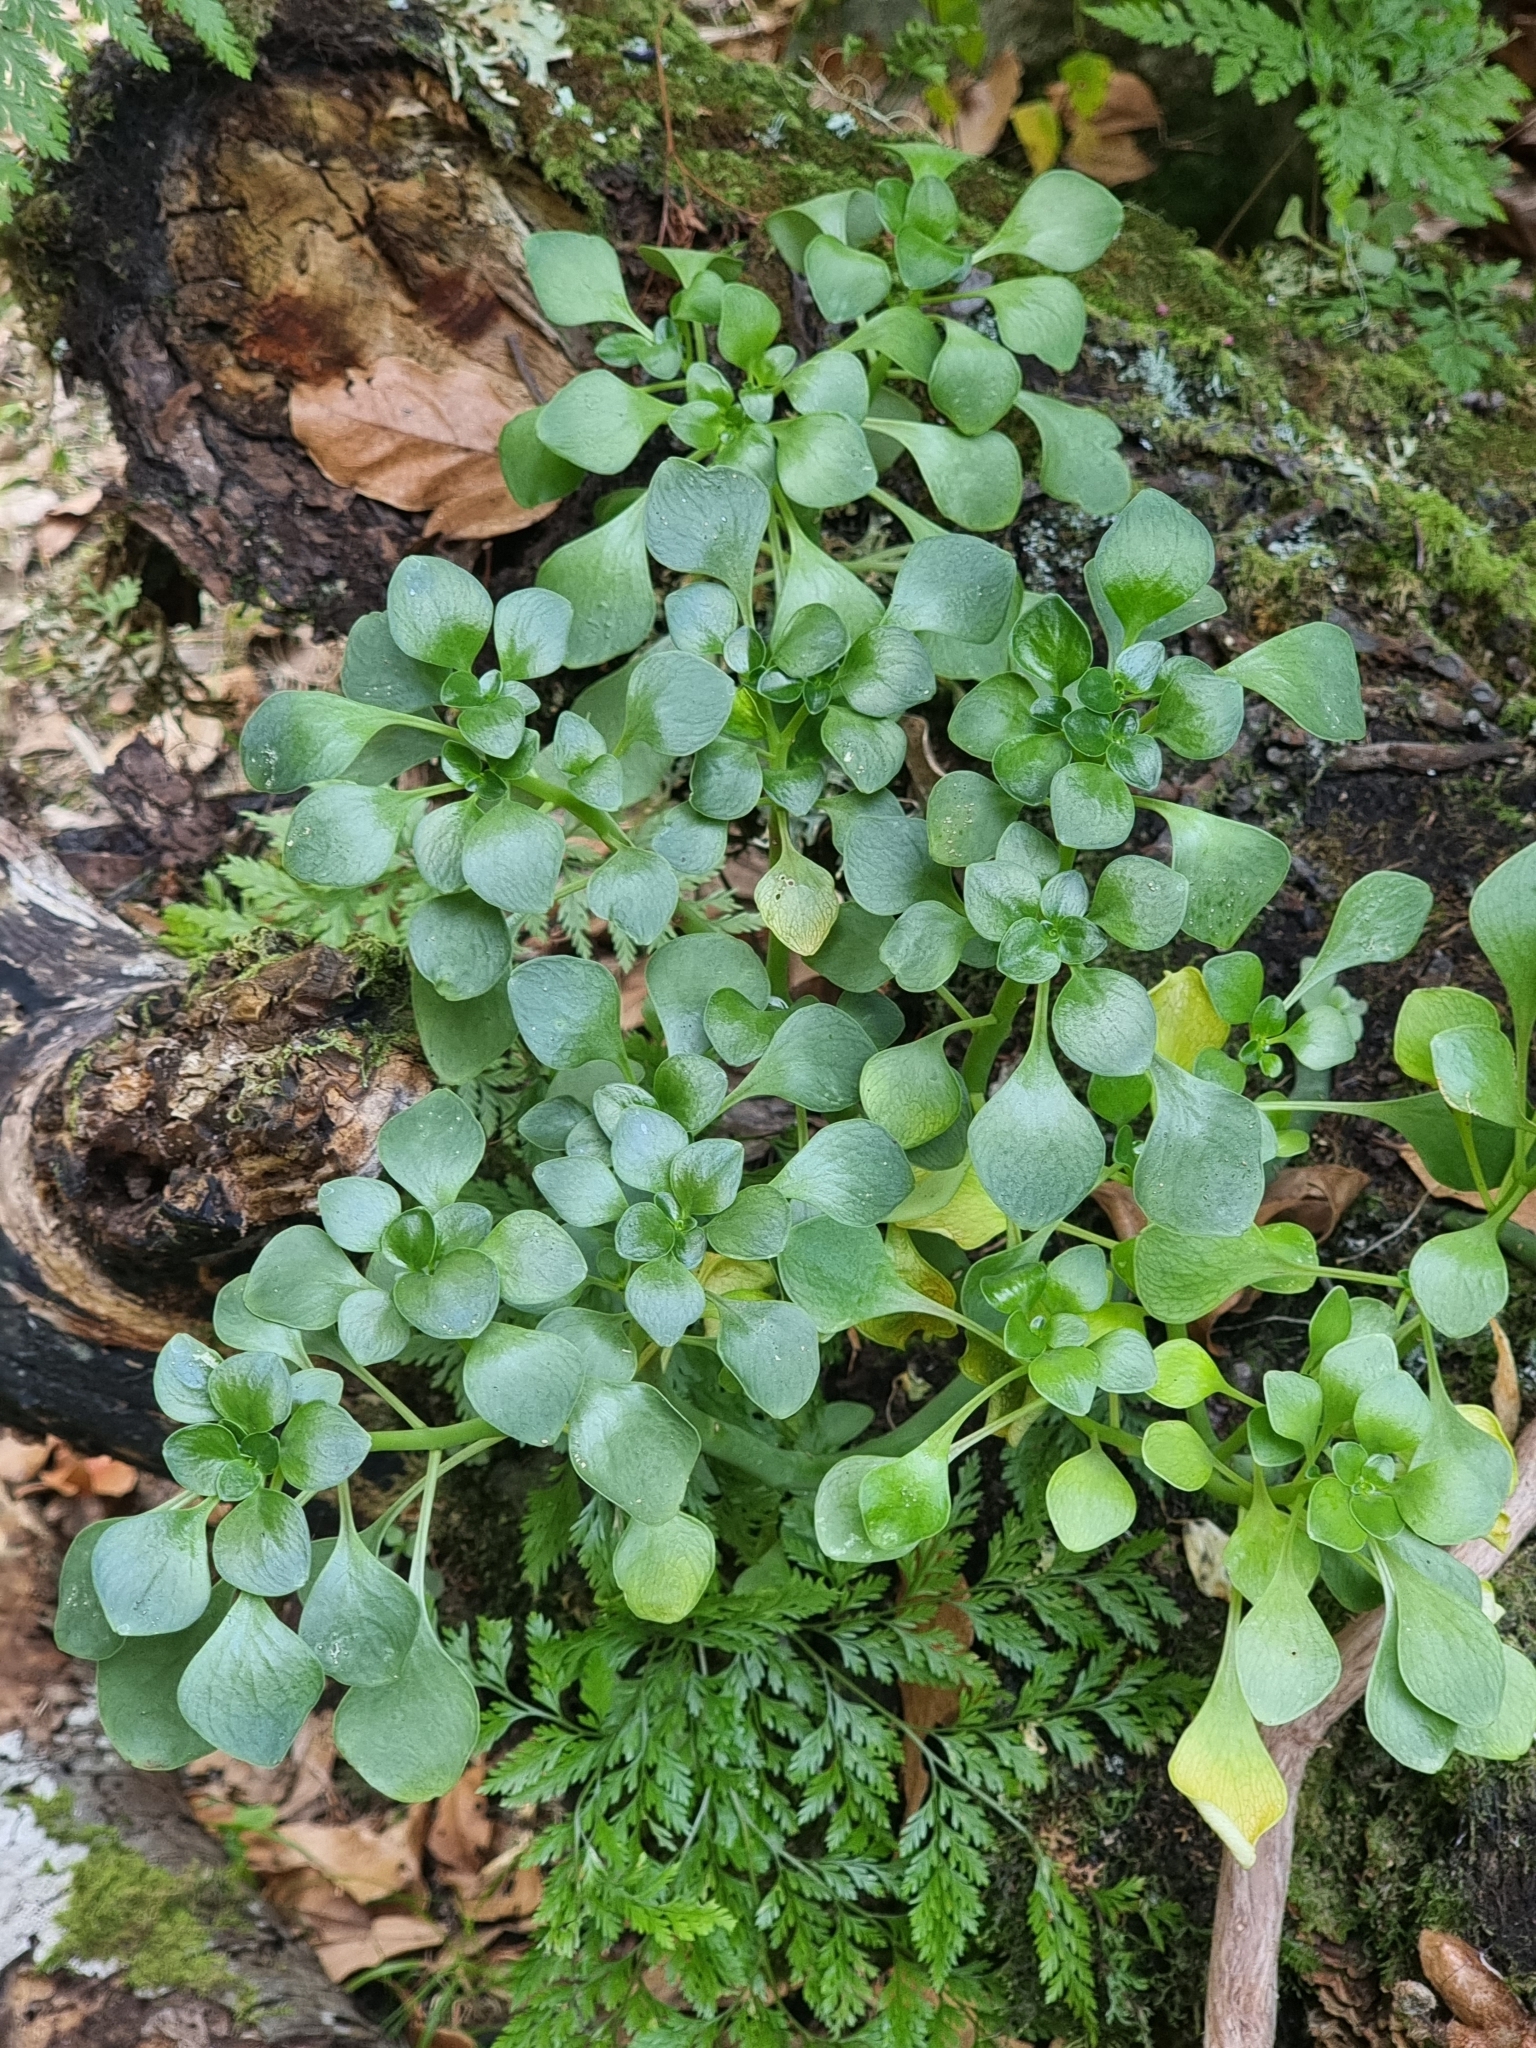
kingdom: Plantae
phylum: Tracheophyta
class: Magnoliopsida
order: Saxifragales
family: Crassulaceae
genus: Aichryson
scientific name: Aichryson divaricatum
